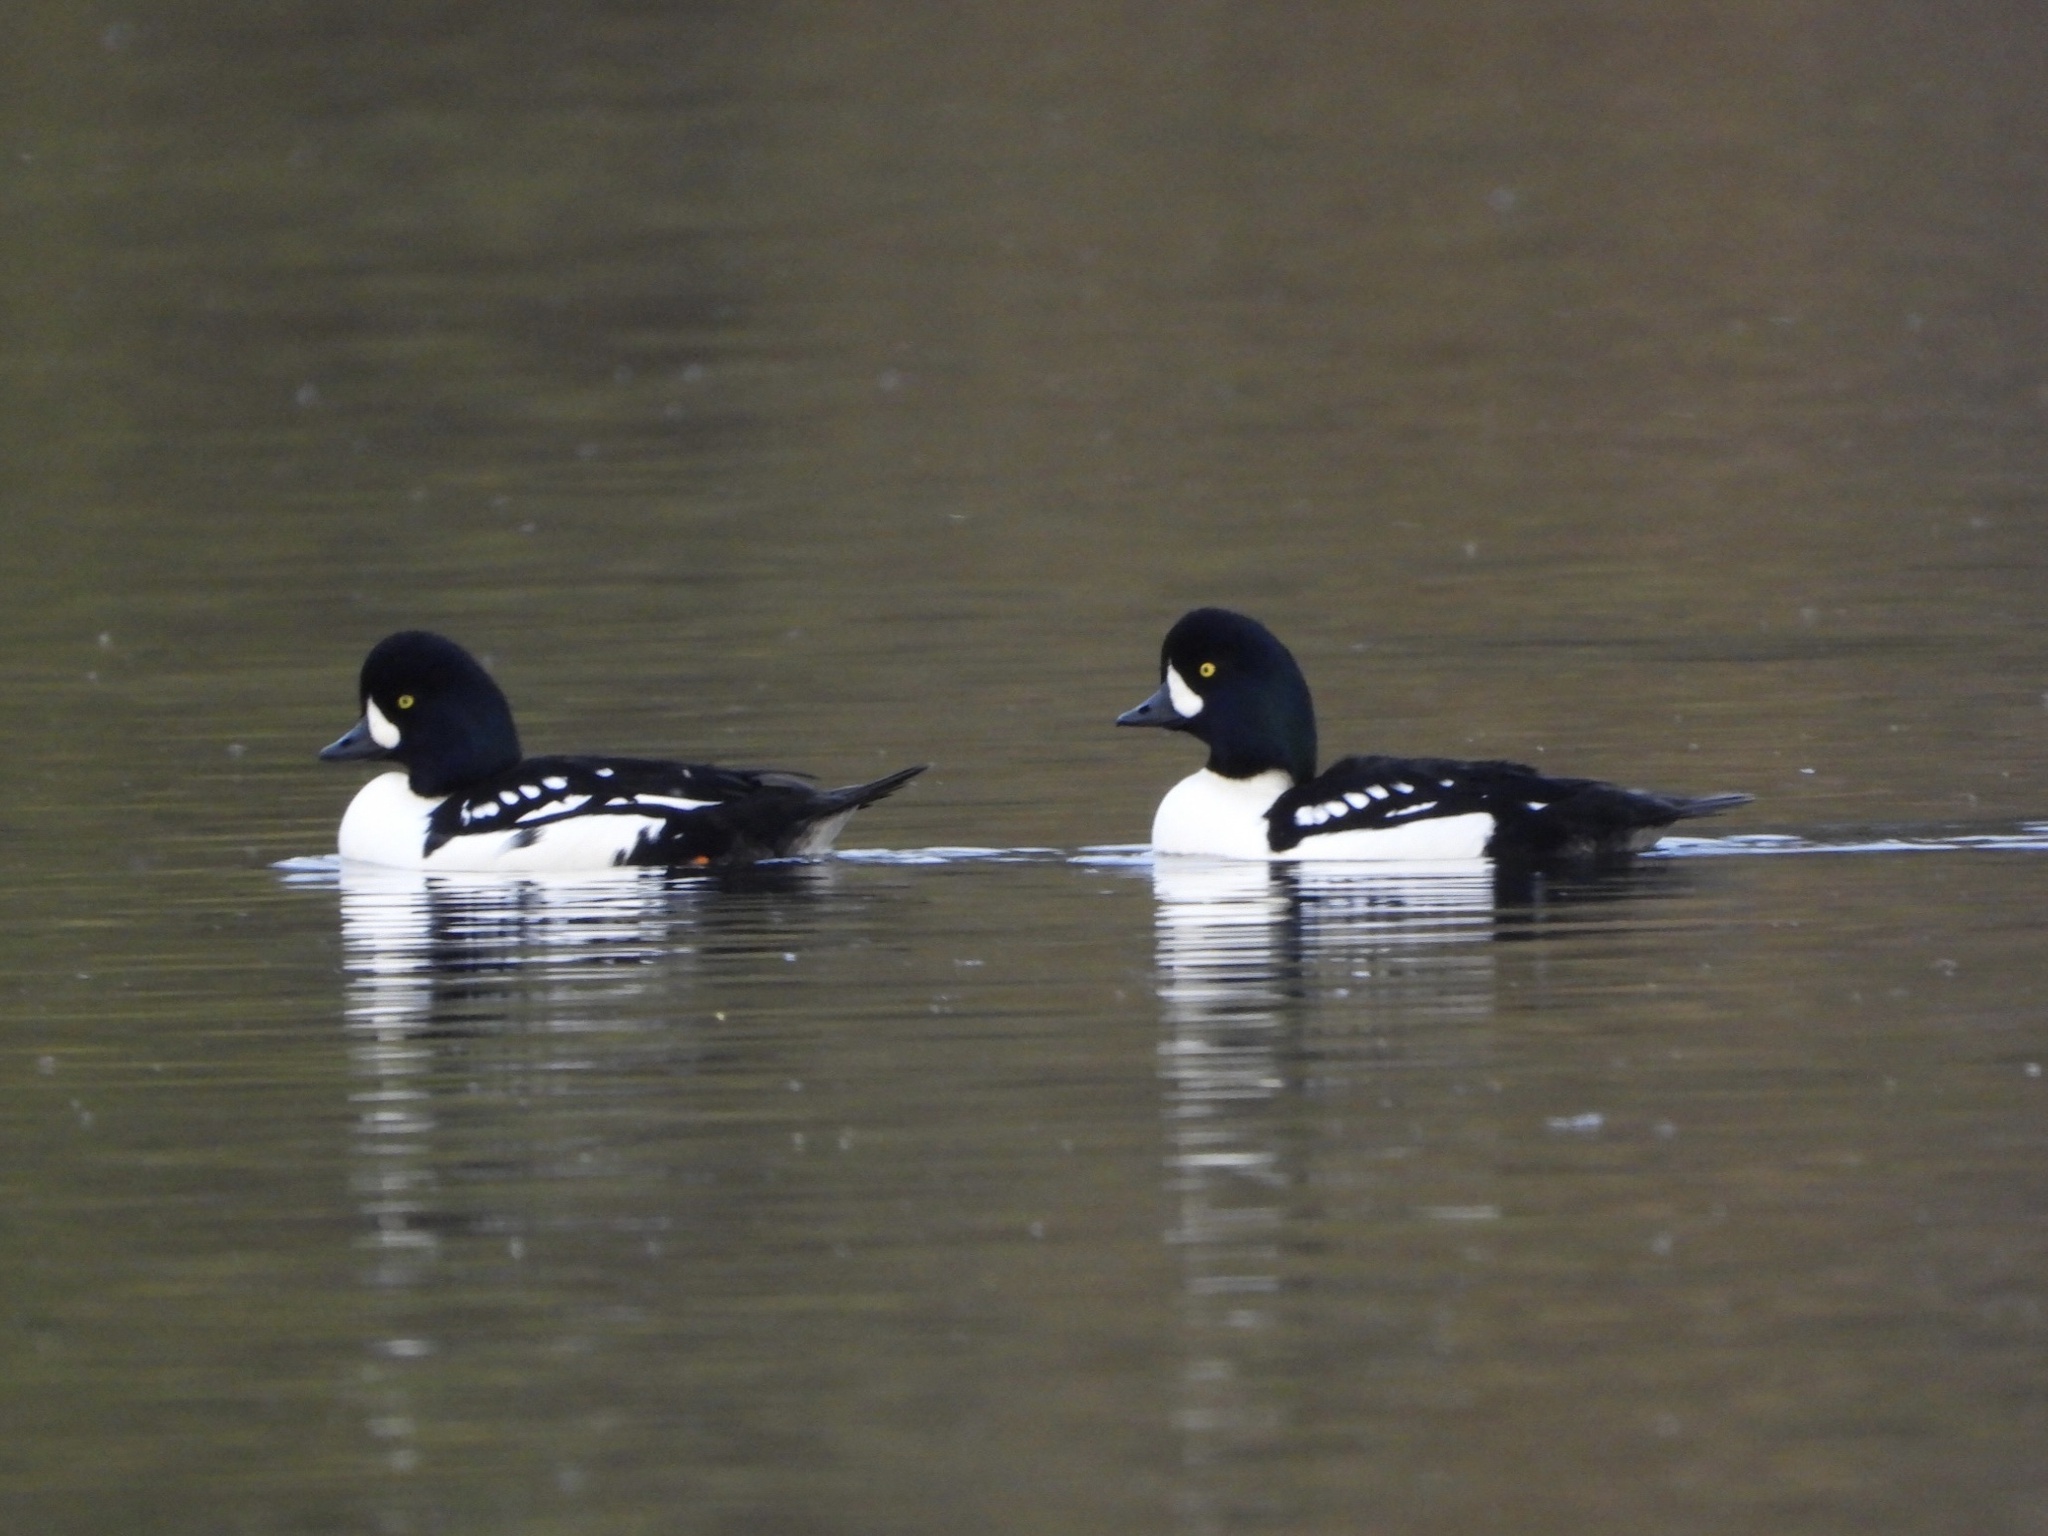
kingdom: Animalia
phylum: Chordata
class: Aves
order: Anseriformes
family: Anatidae
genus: Bucephala
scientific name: Bucephala islandica
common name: Barrow's goldeneye
